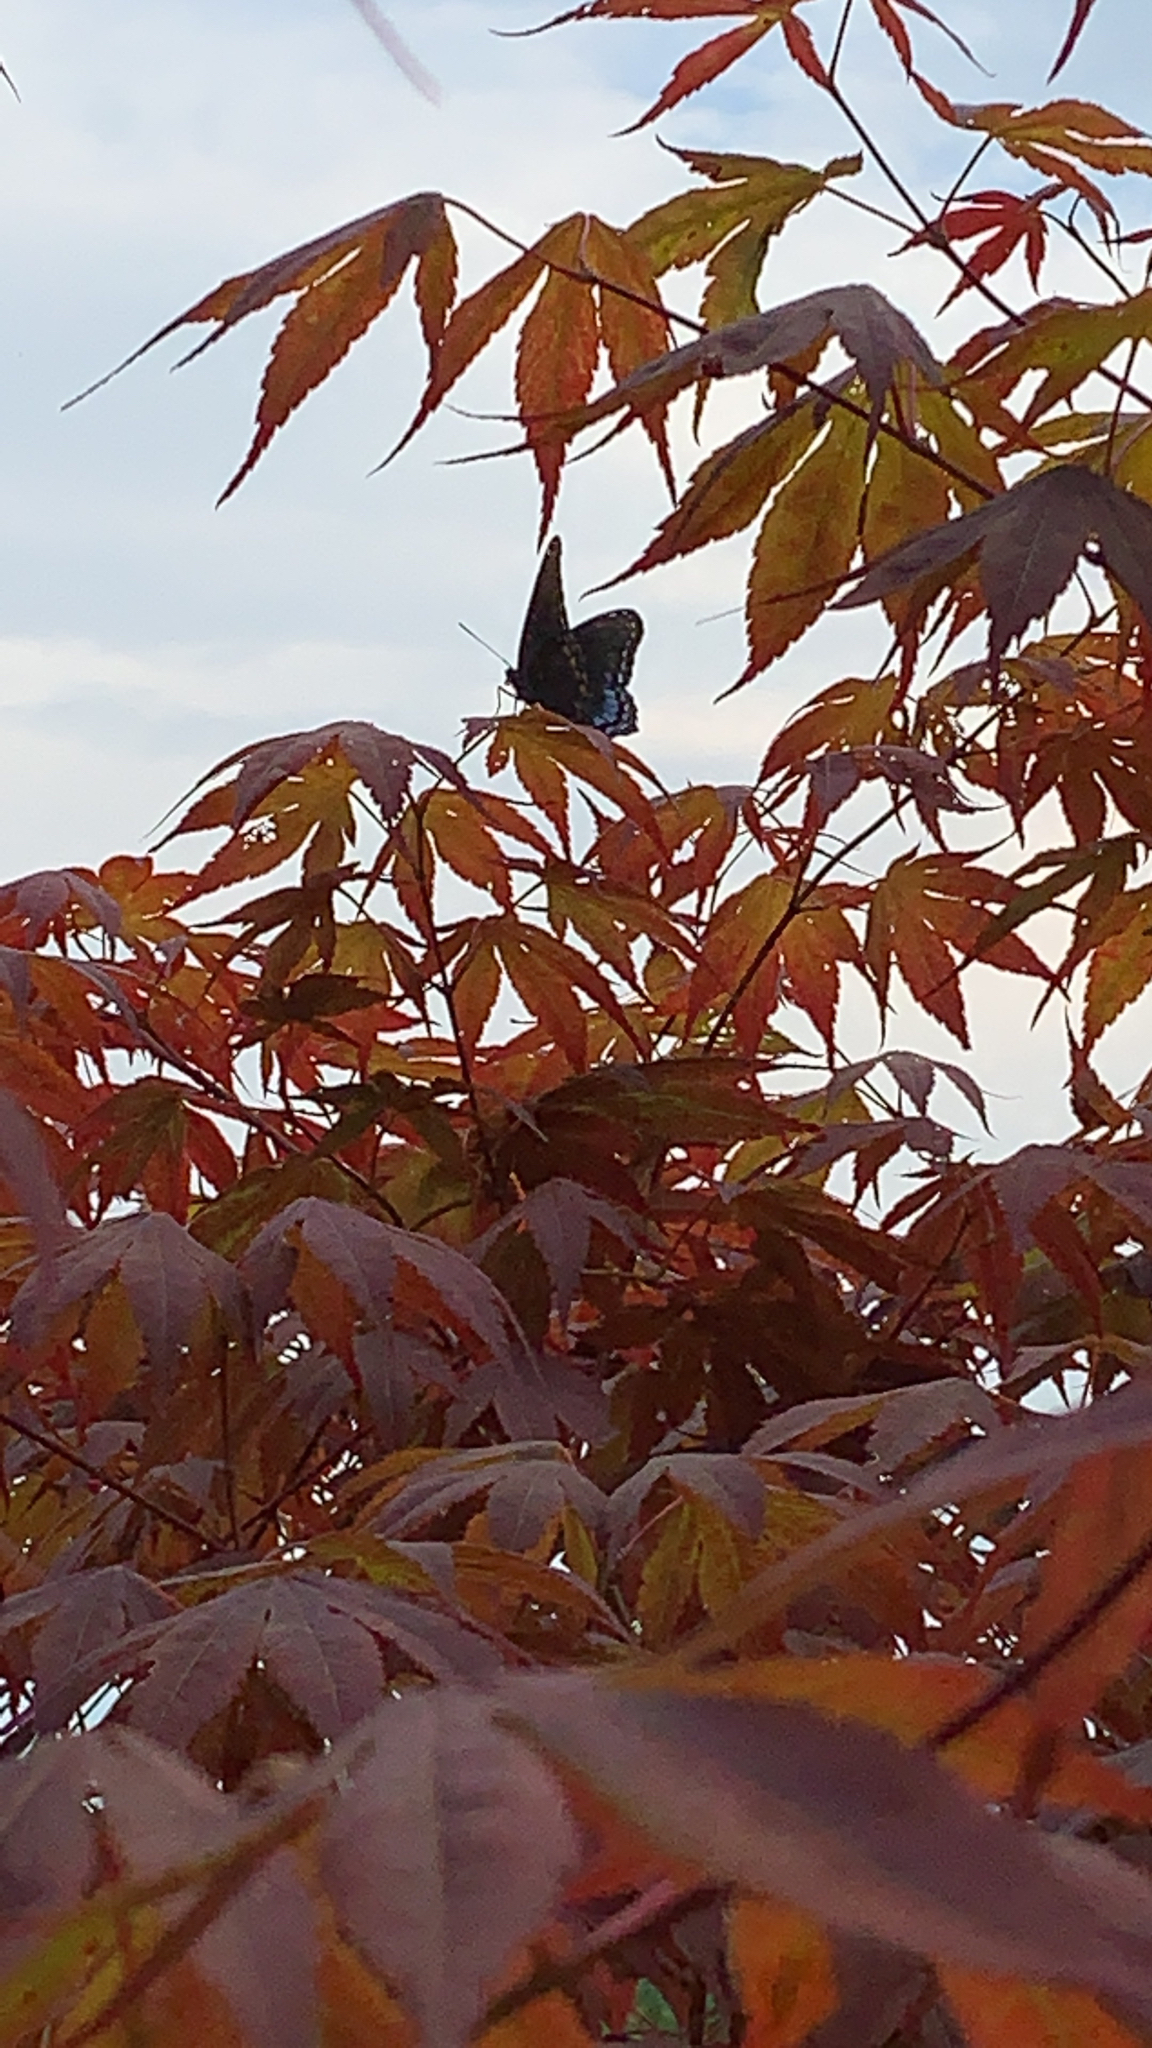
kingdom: Animalia
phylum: Arthropoda
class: Insecta
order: Lepidoptera
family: Nymphalidae
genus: Limenitis
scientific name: Limenitis arthemis
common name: Red-spotted admiral
